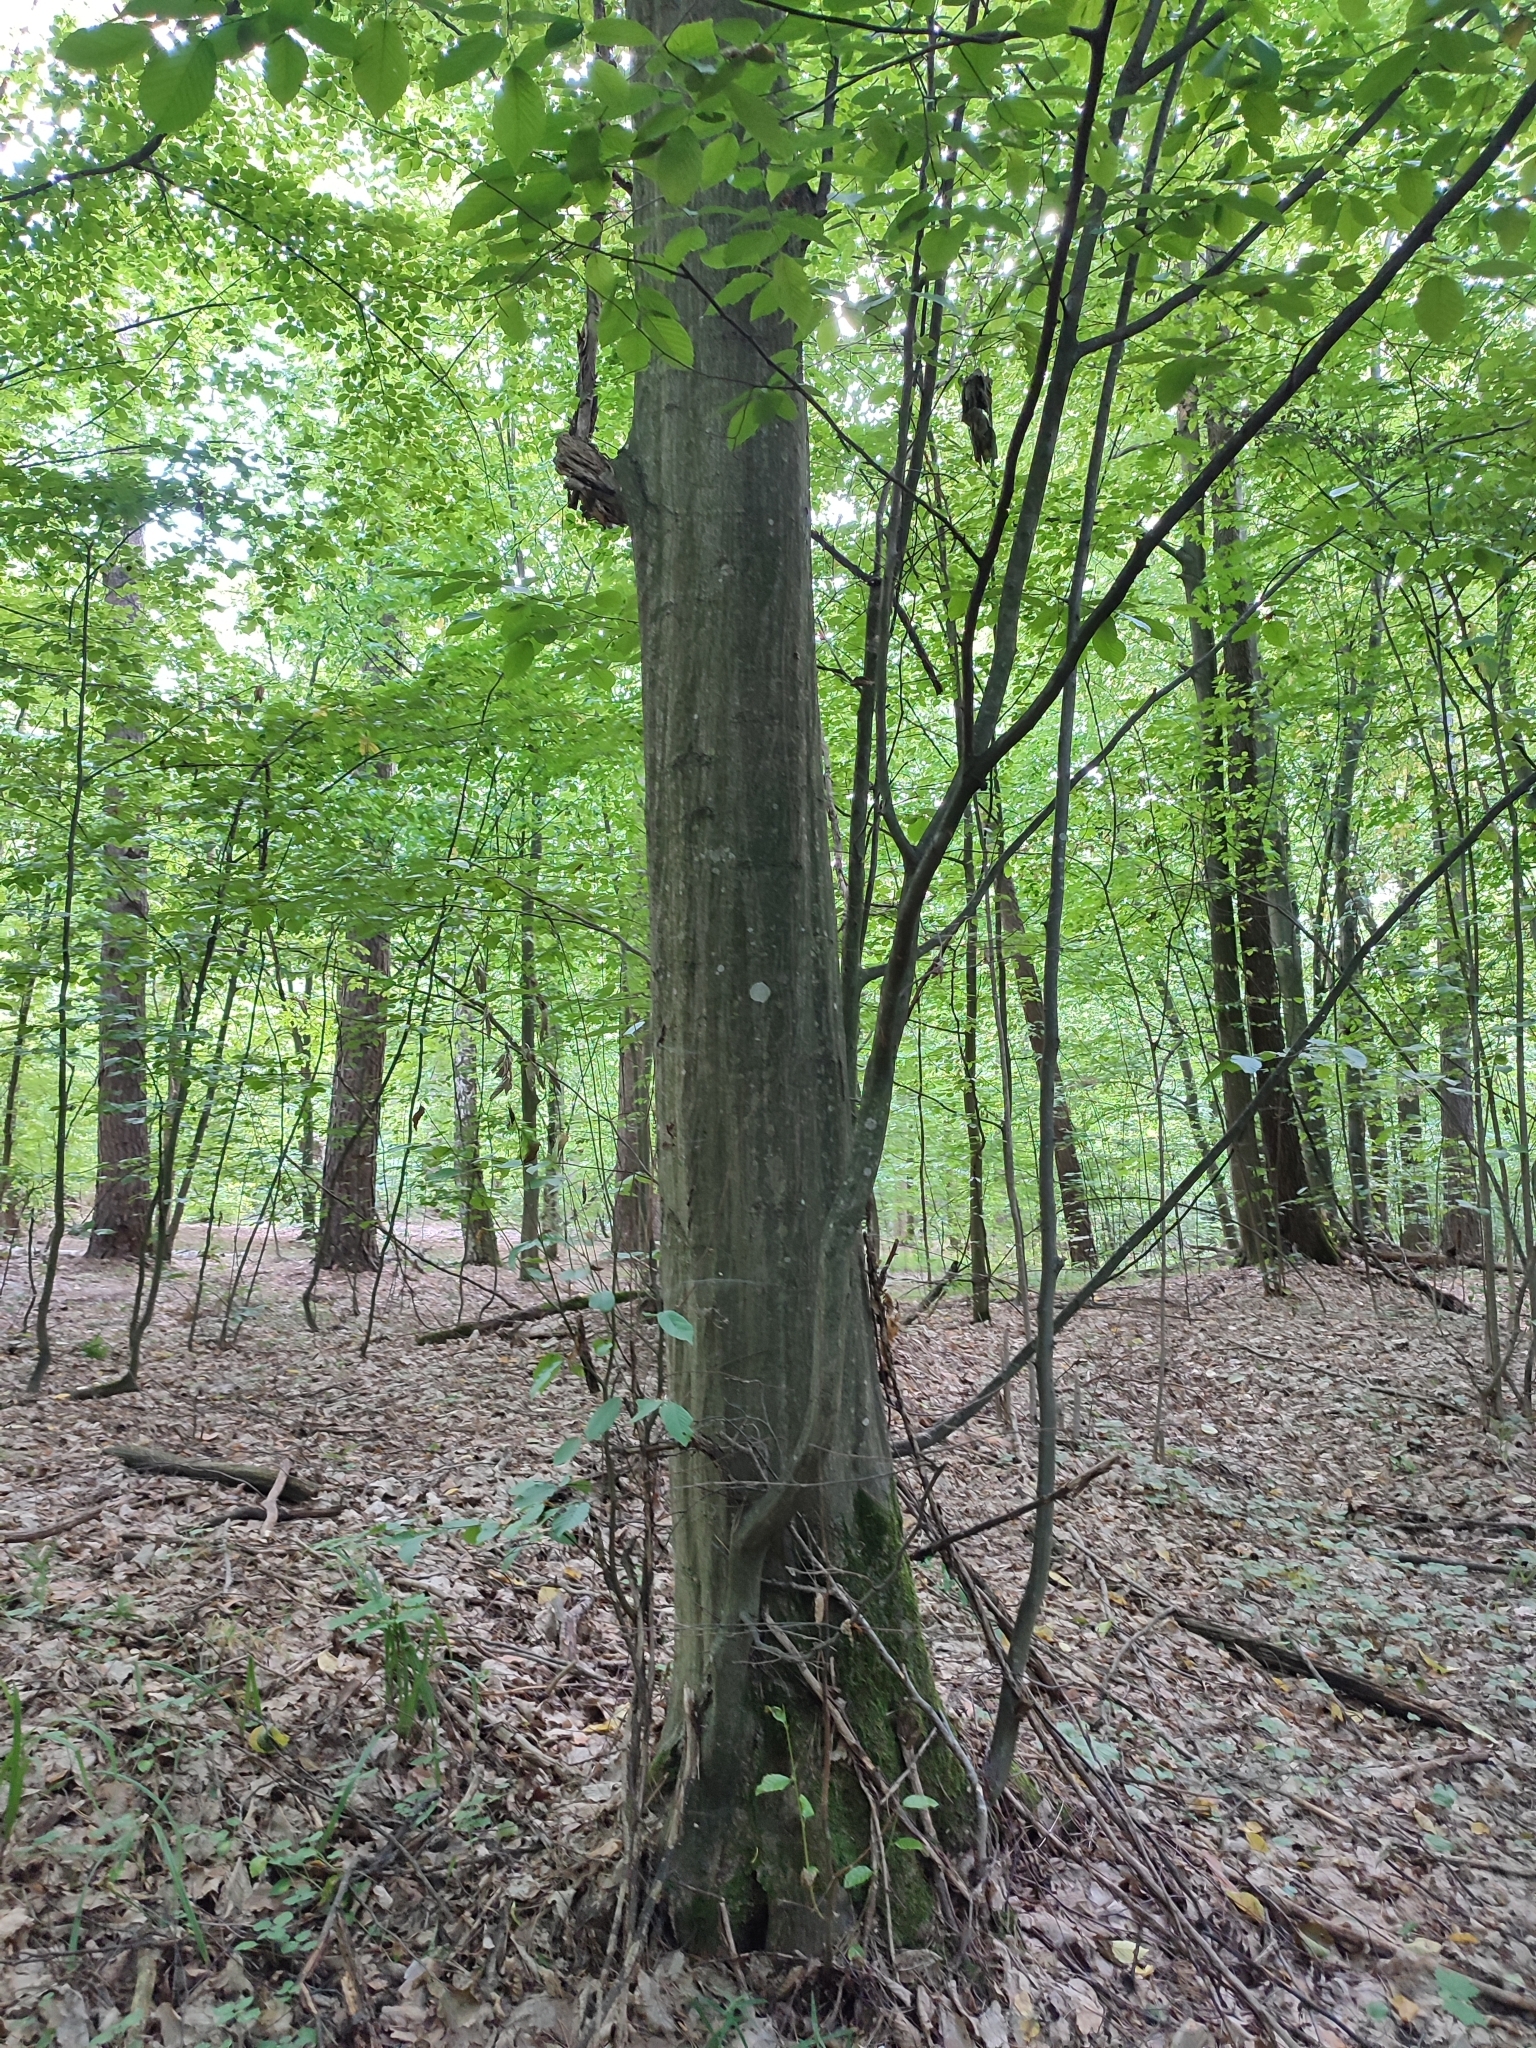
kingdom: Plantae
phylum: Tracheophyta
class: Magnoliopsida
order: Fagales
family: Betulaceae
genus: Carpinus
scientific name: Carpinus betulus
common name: Hornbeam
